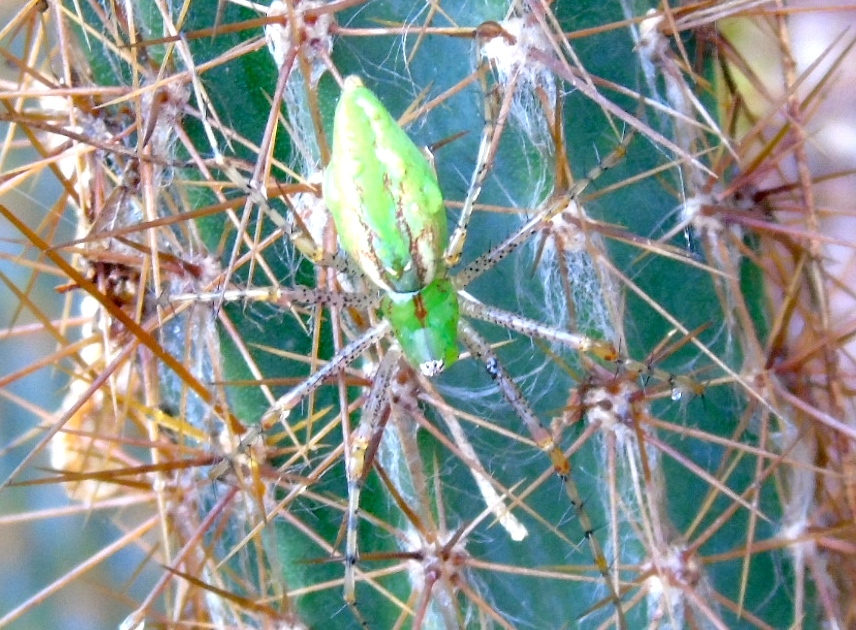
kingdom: Animalia
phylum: Arthropoda
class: Arachnida
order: Araneae
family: Oxyopidae
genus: Peucetia
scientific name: Peucetia viridans
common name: Lynx spiders
